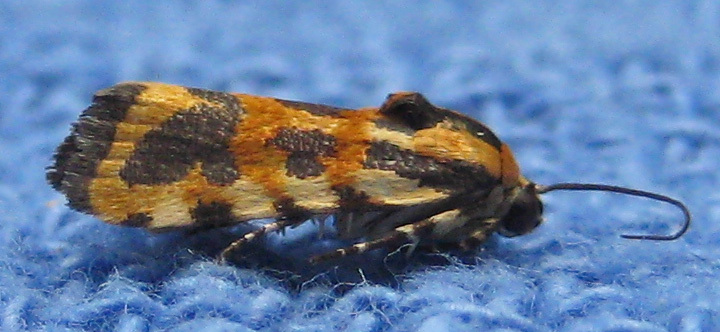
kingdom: Animalia
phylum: Arthropoda
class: Insecta
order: Lepidoptera
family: Noctuidae
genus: Acontia
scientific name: Acontia leo
